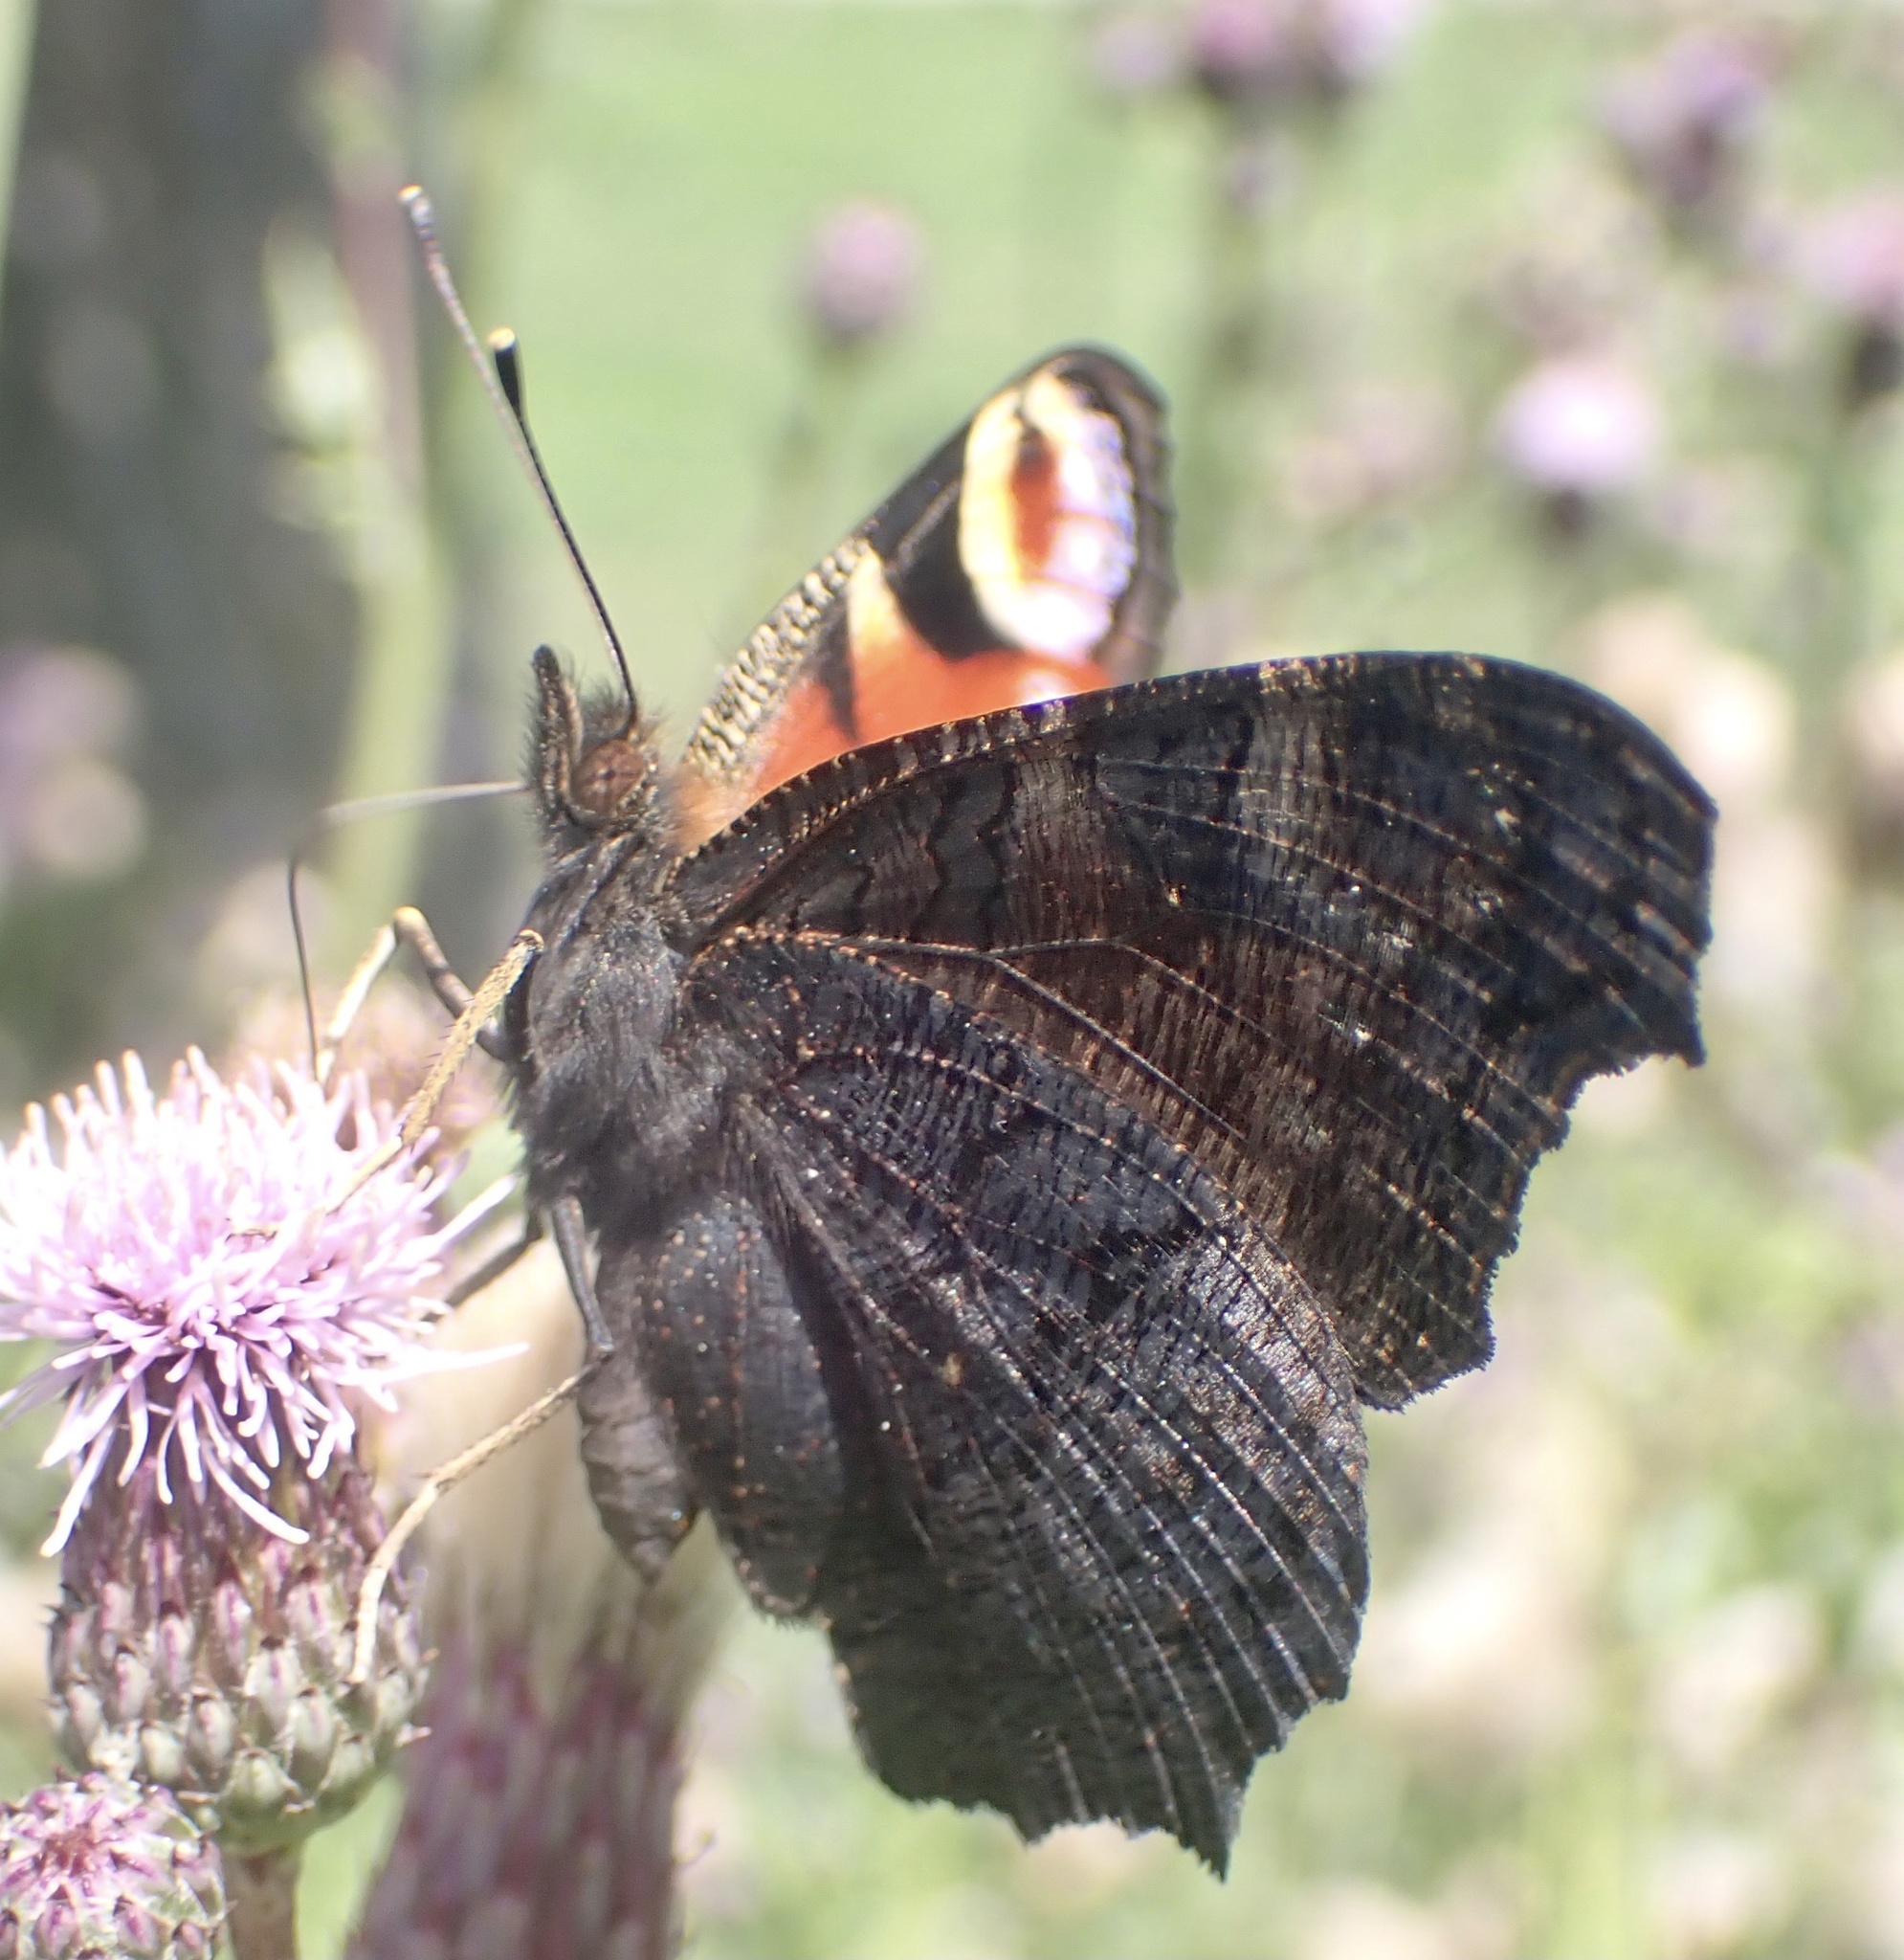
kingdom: Animalia
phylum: Arthropoda
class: Insecta
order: Lepidoptera
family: Nymphalidae
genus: Aglais
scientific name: Aglais io
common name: Peacock
